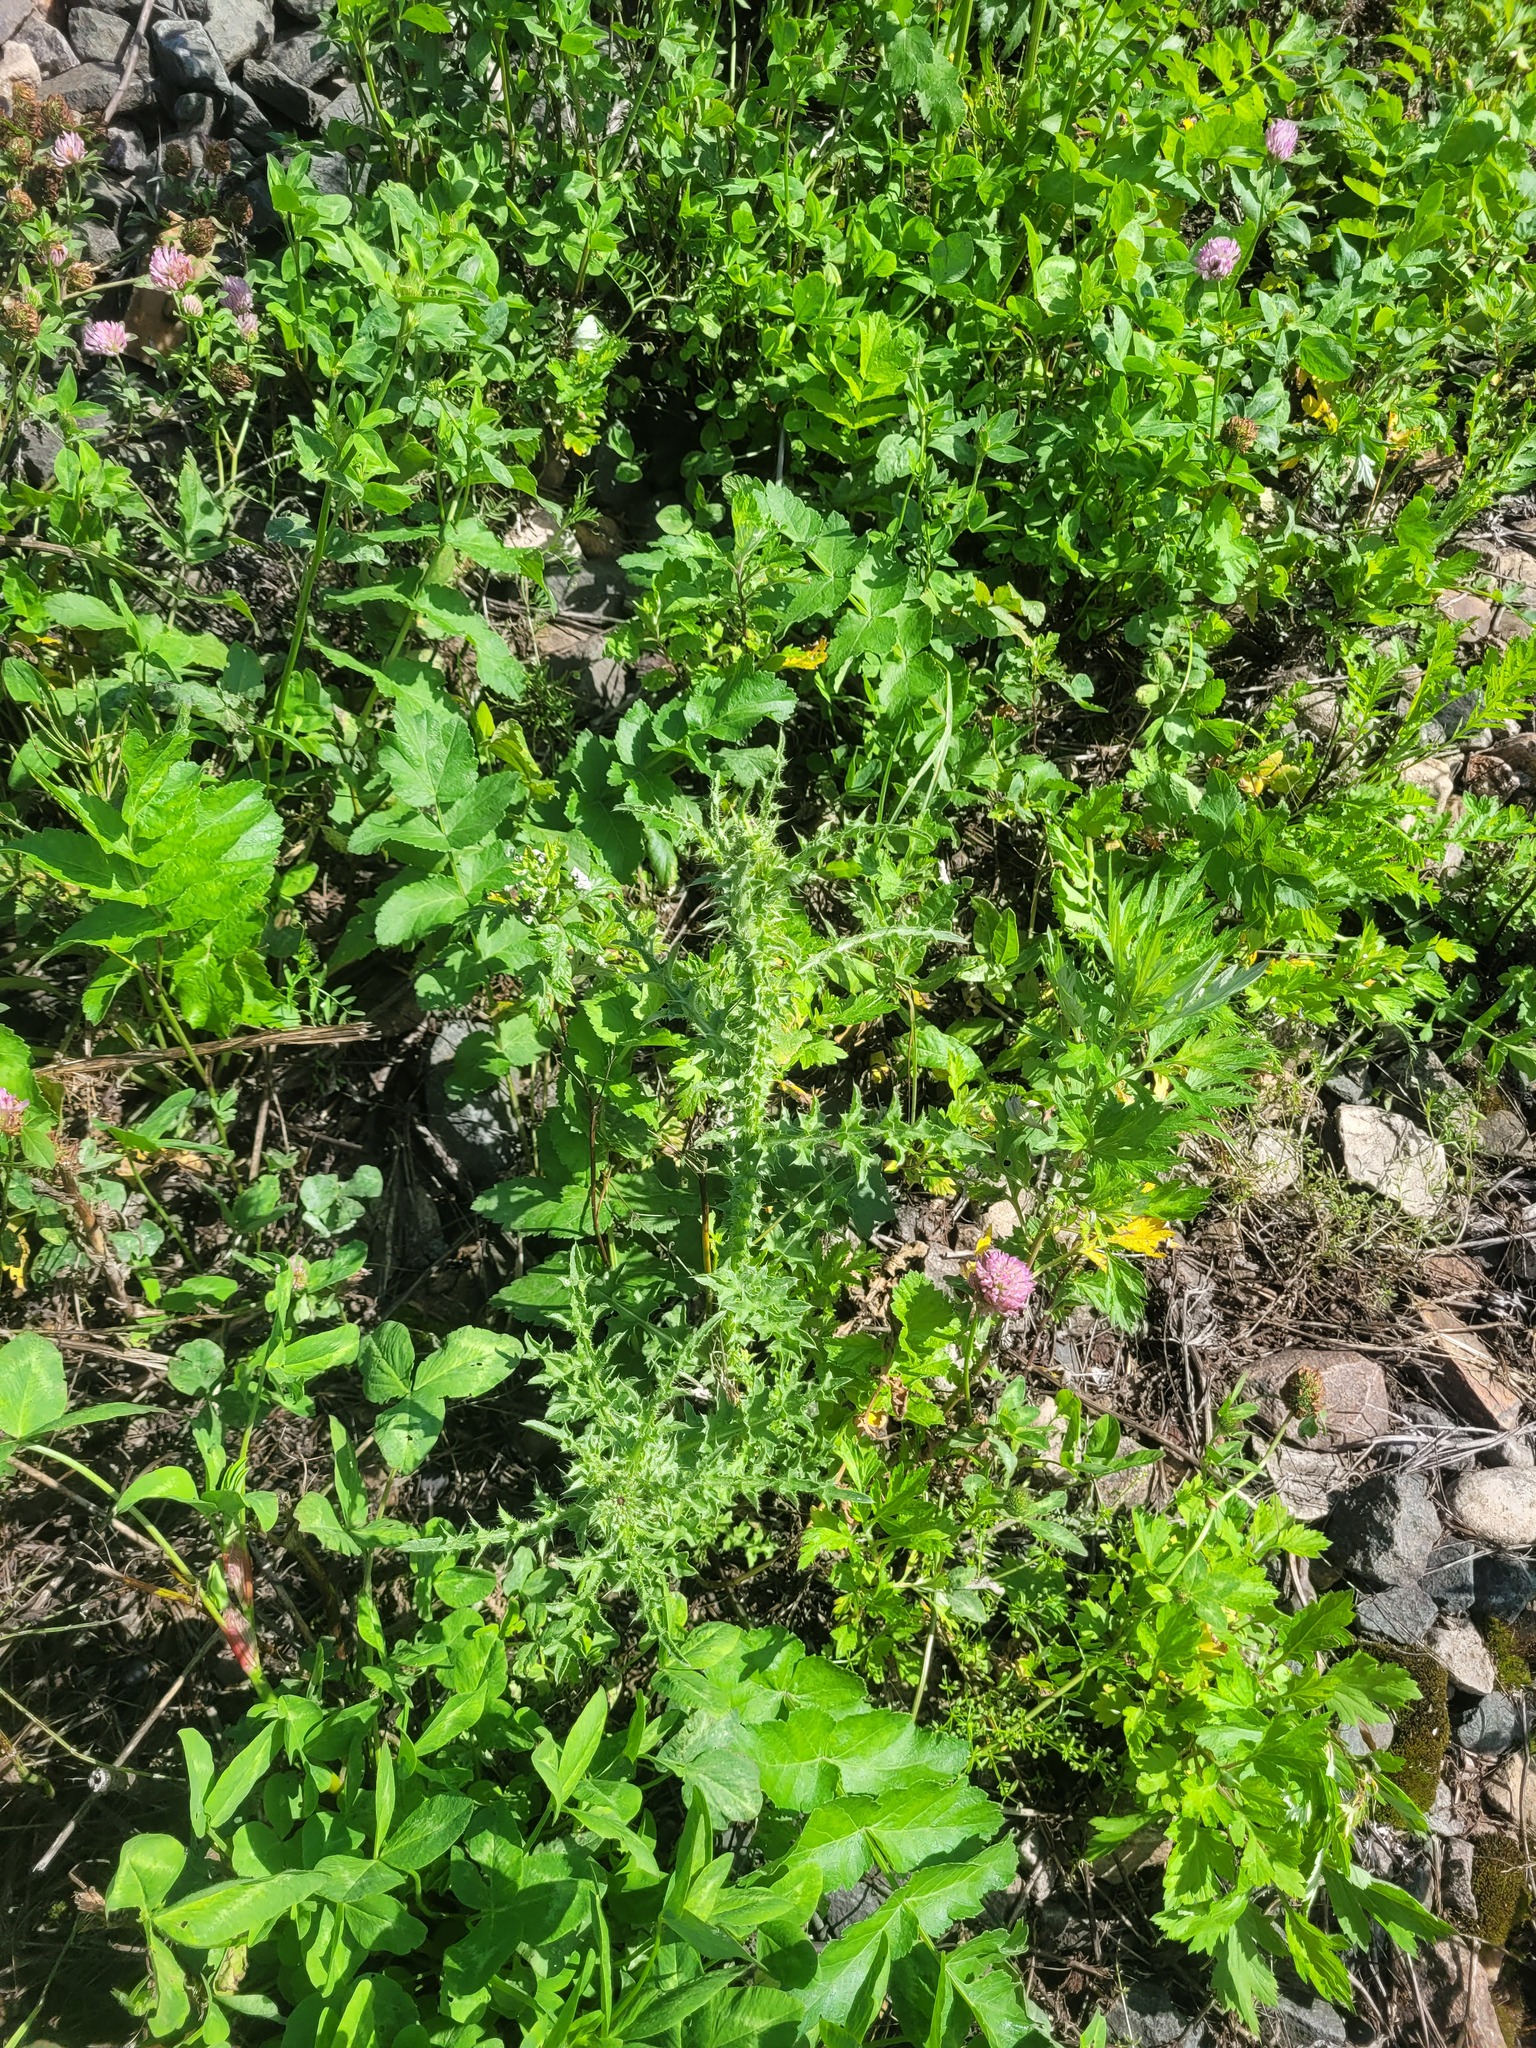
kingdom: Plantae
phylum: Tracheophyta
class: Magnoliopsida
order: Asterales
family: Asteraceae
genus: Carduus
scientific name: Carduus acanthoides
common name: Plumeless thistle
